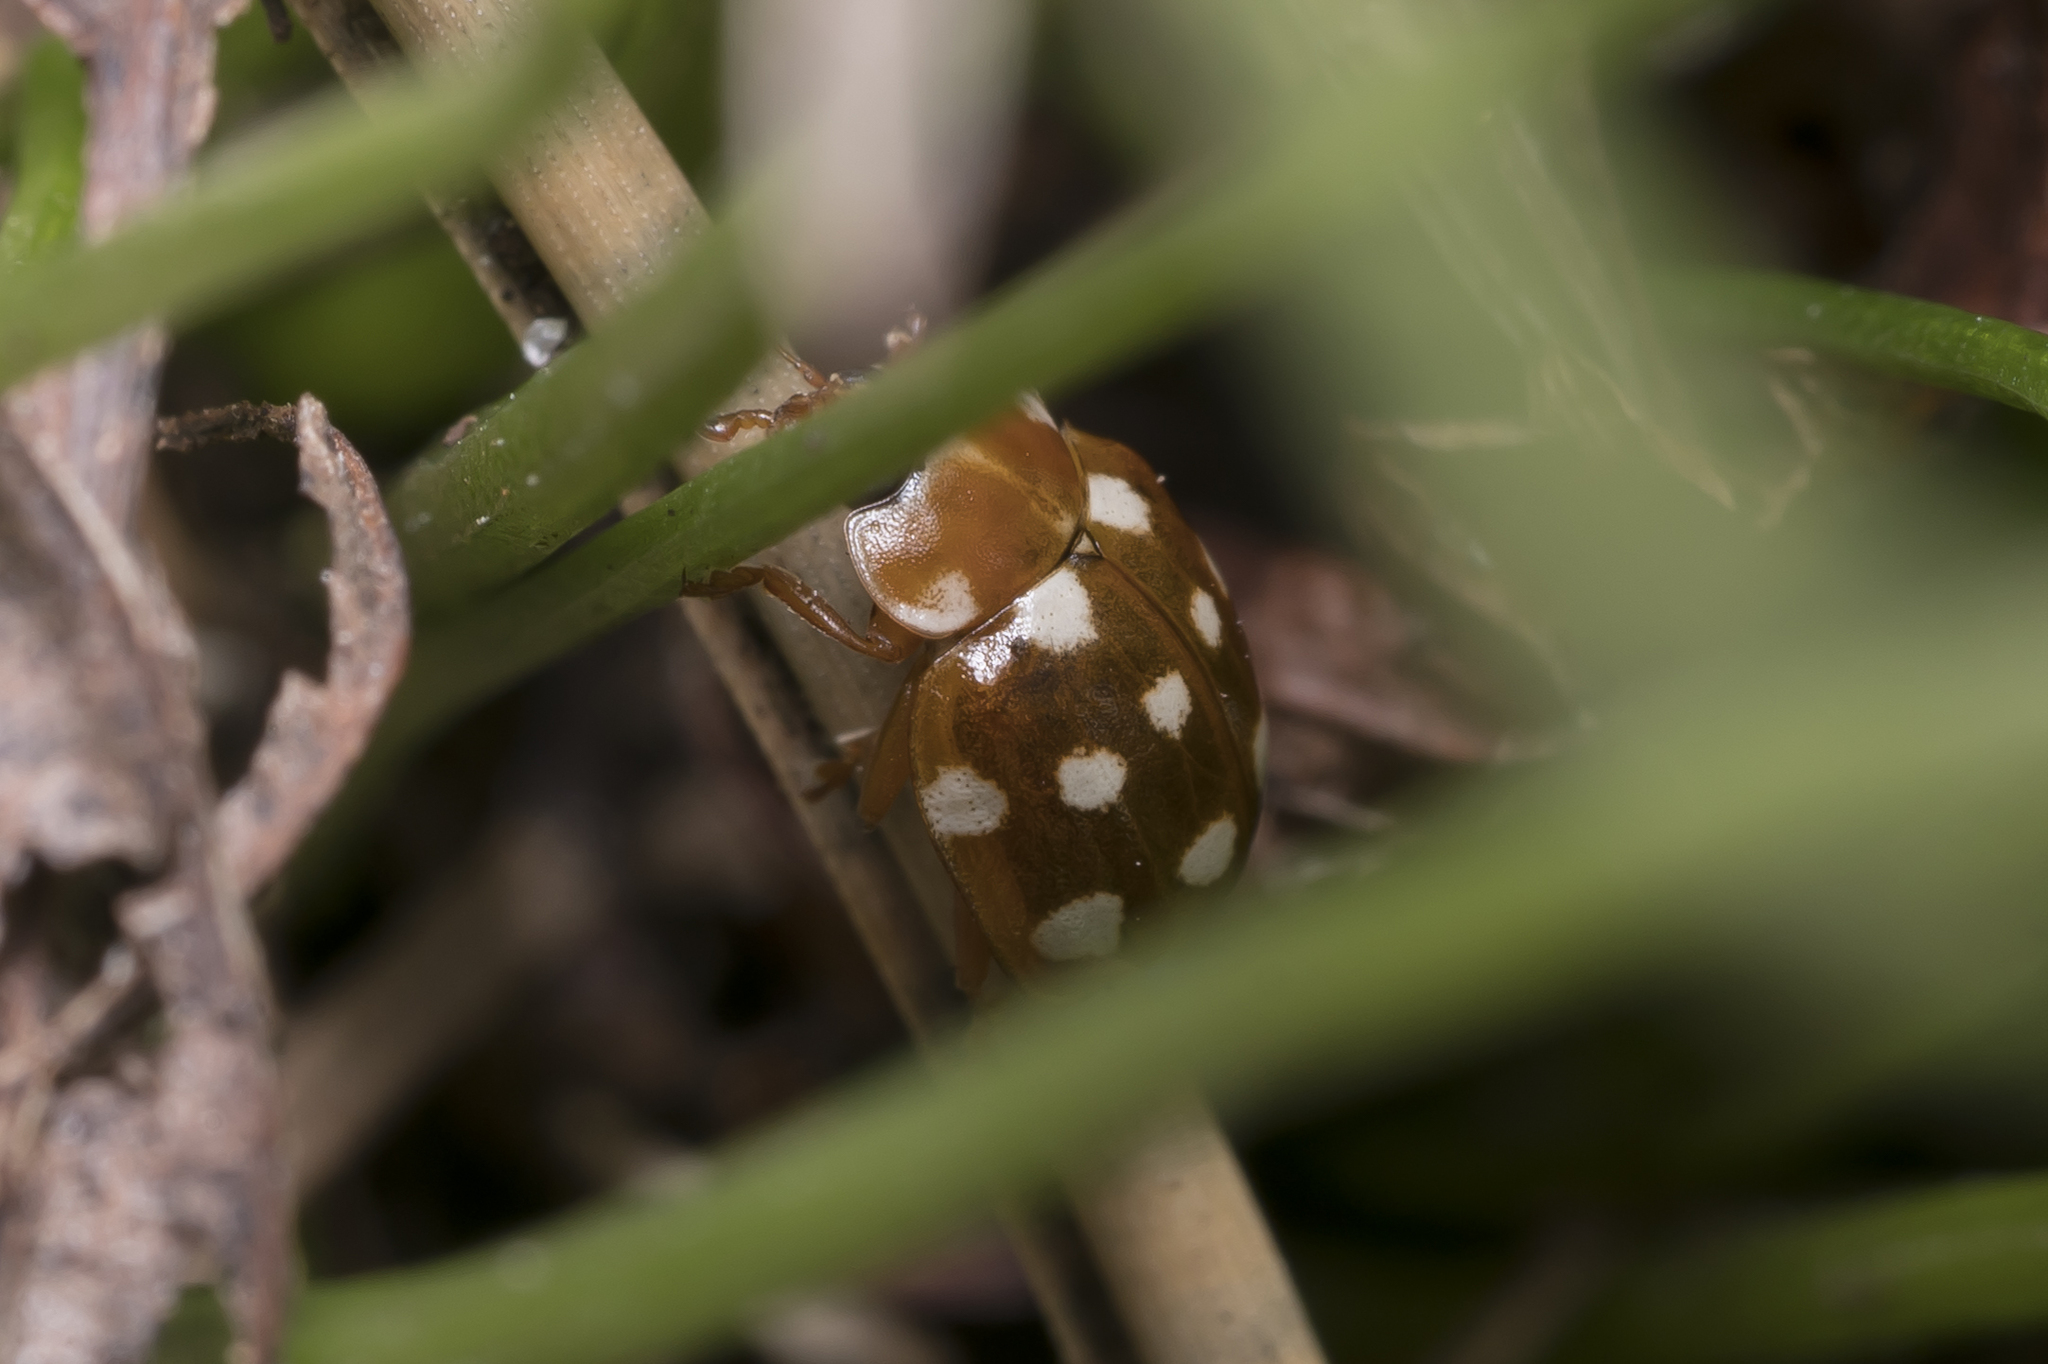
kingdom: Animalia
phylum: Arthropoda
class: Insecta
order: Coleoptera
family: Coccinellidae
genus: Calvia
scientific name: Calvia quatuordecimguttata
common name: Cream-spot ladybird
